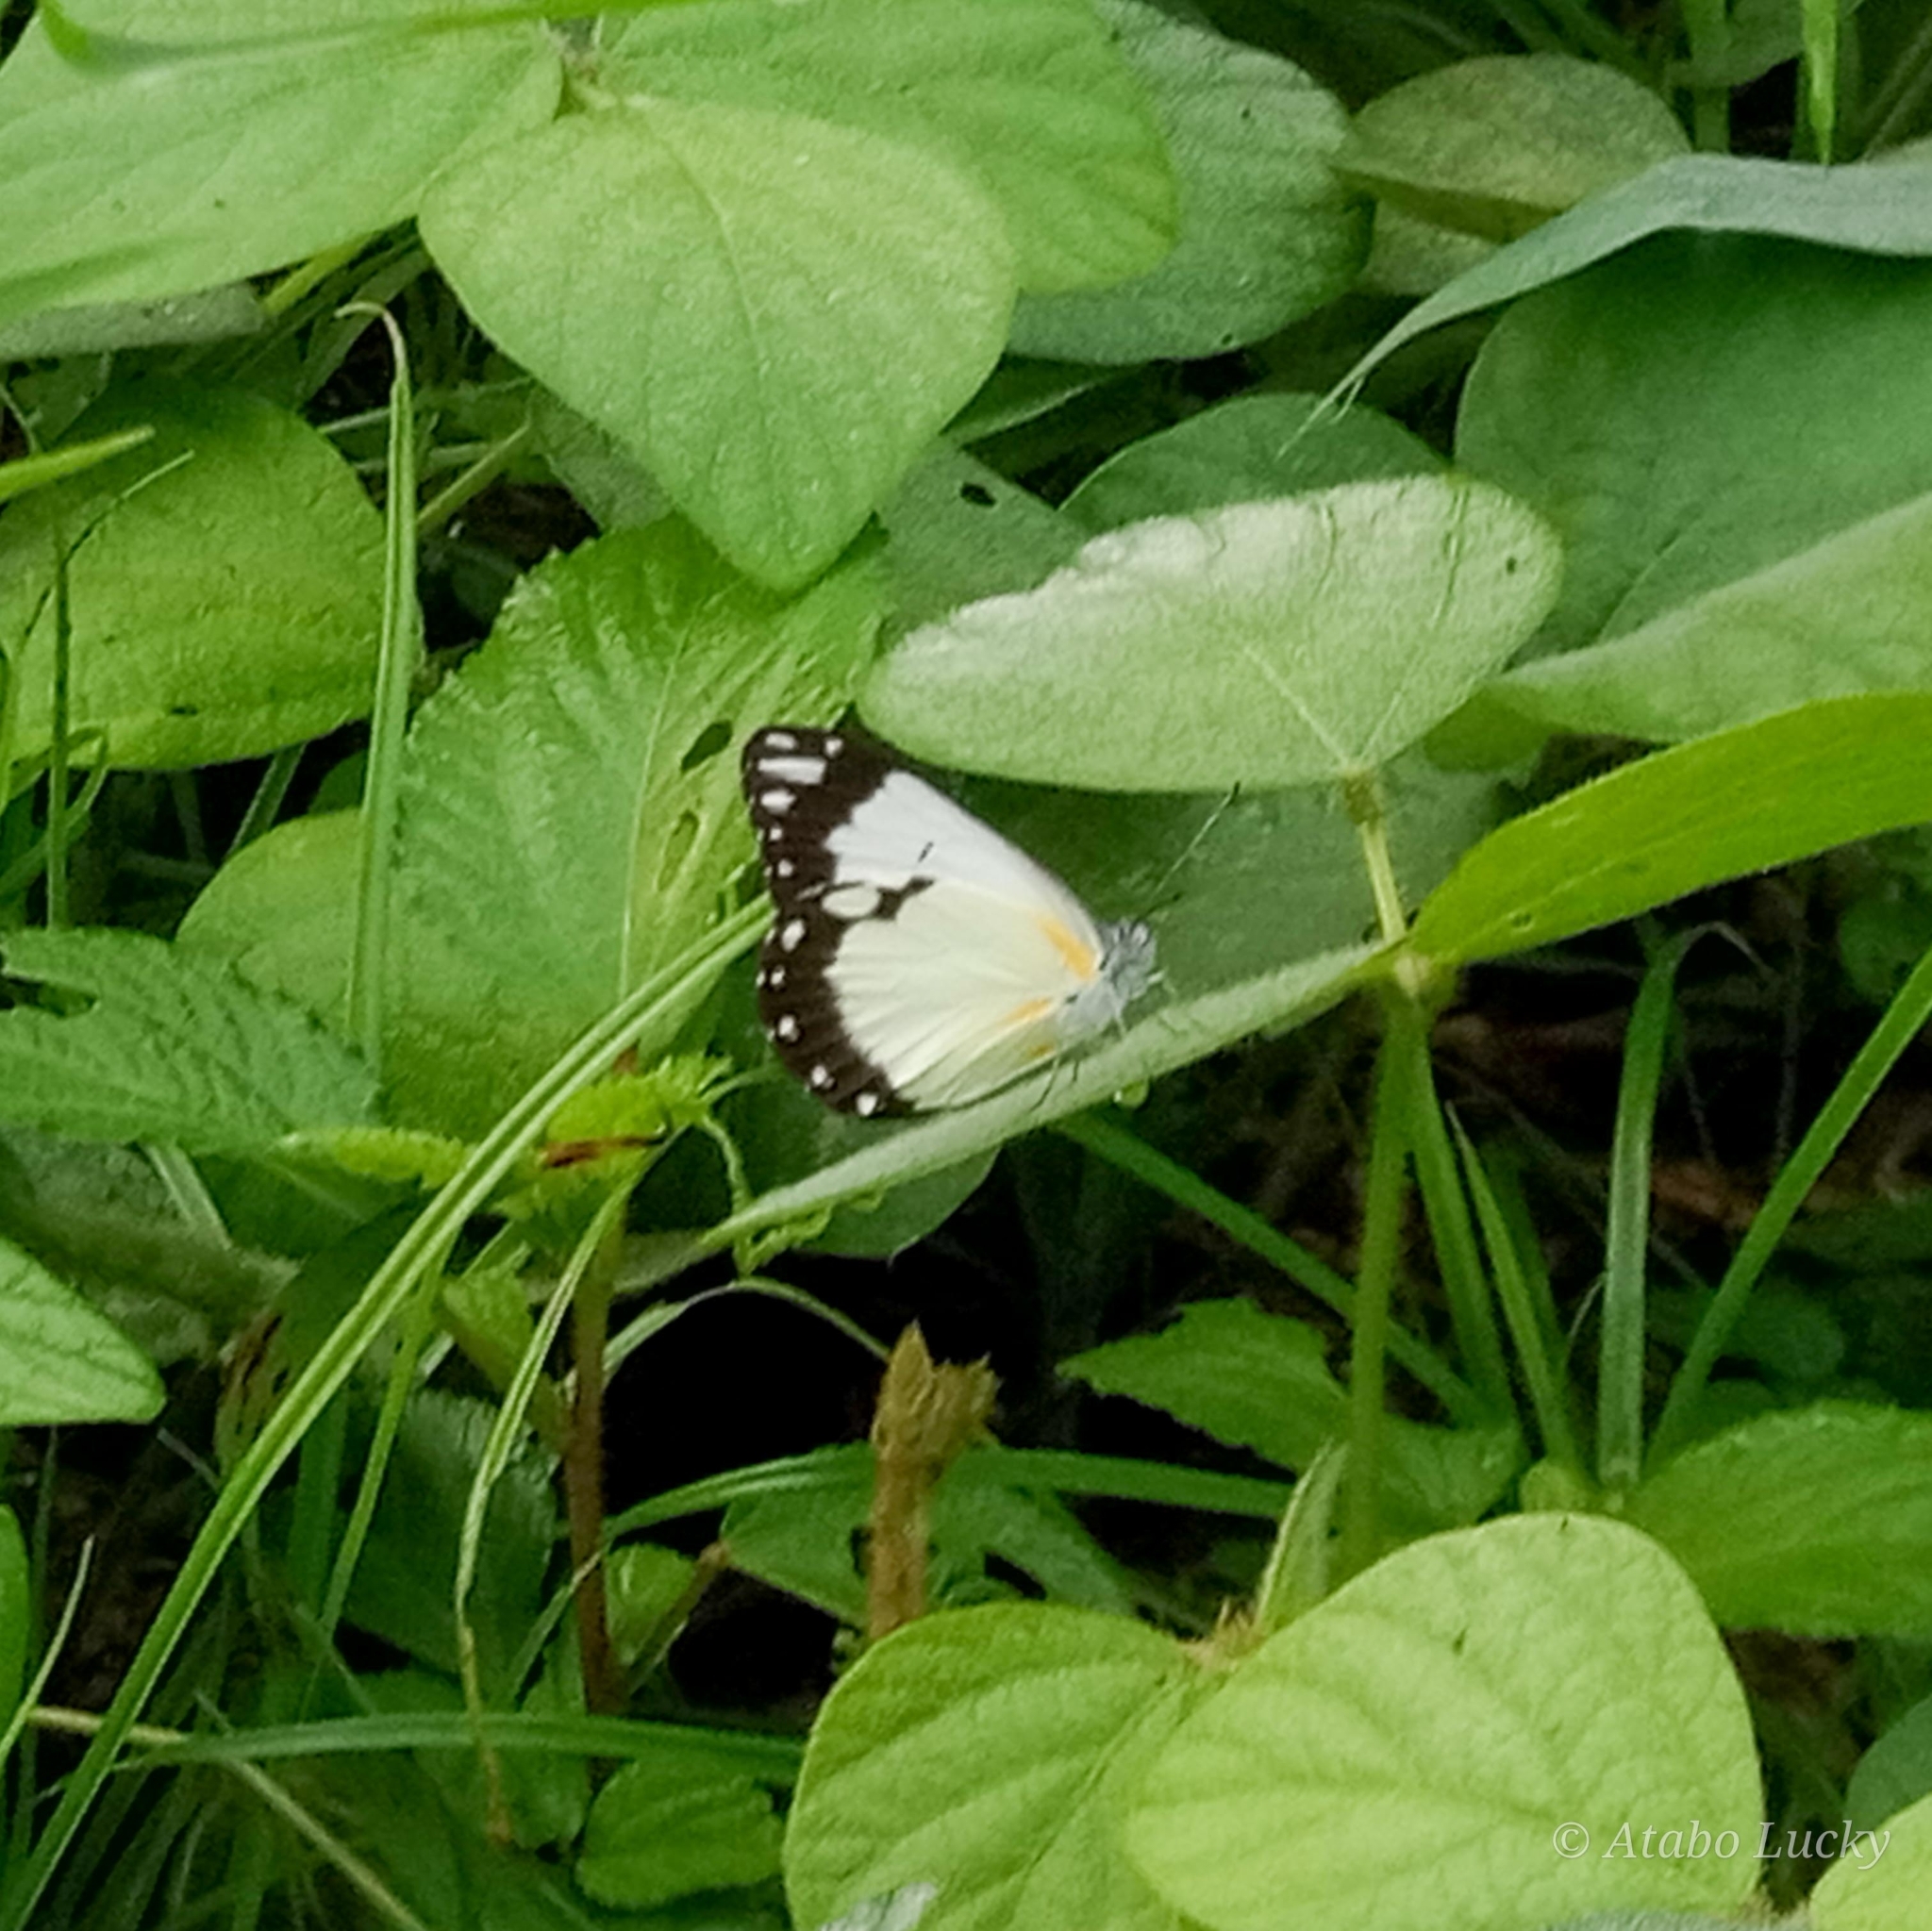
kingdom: Animalia
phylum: Arthropoda
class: Insecta
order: Lepidoptera
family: Pieridae
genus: Belenois
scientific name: Belenois creona
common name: African caper white
